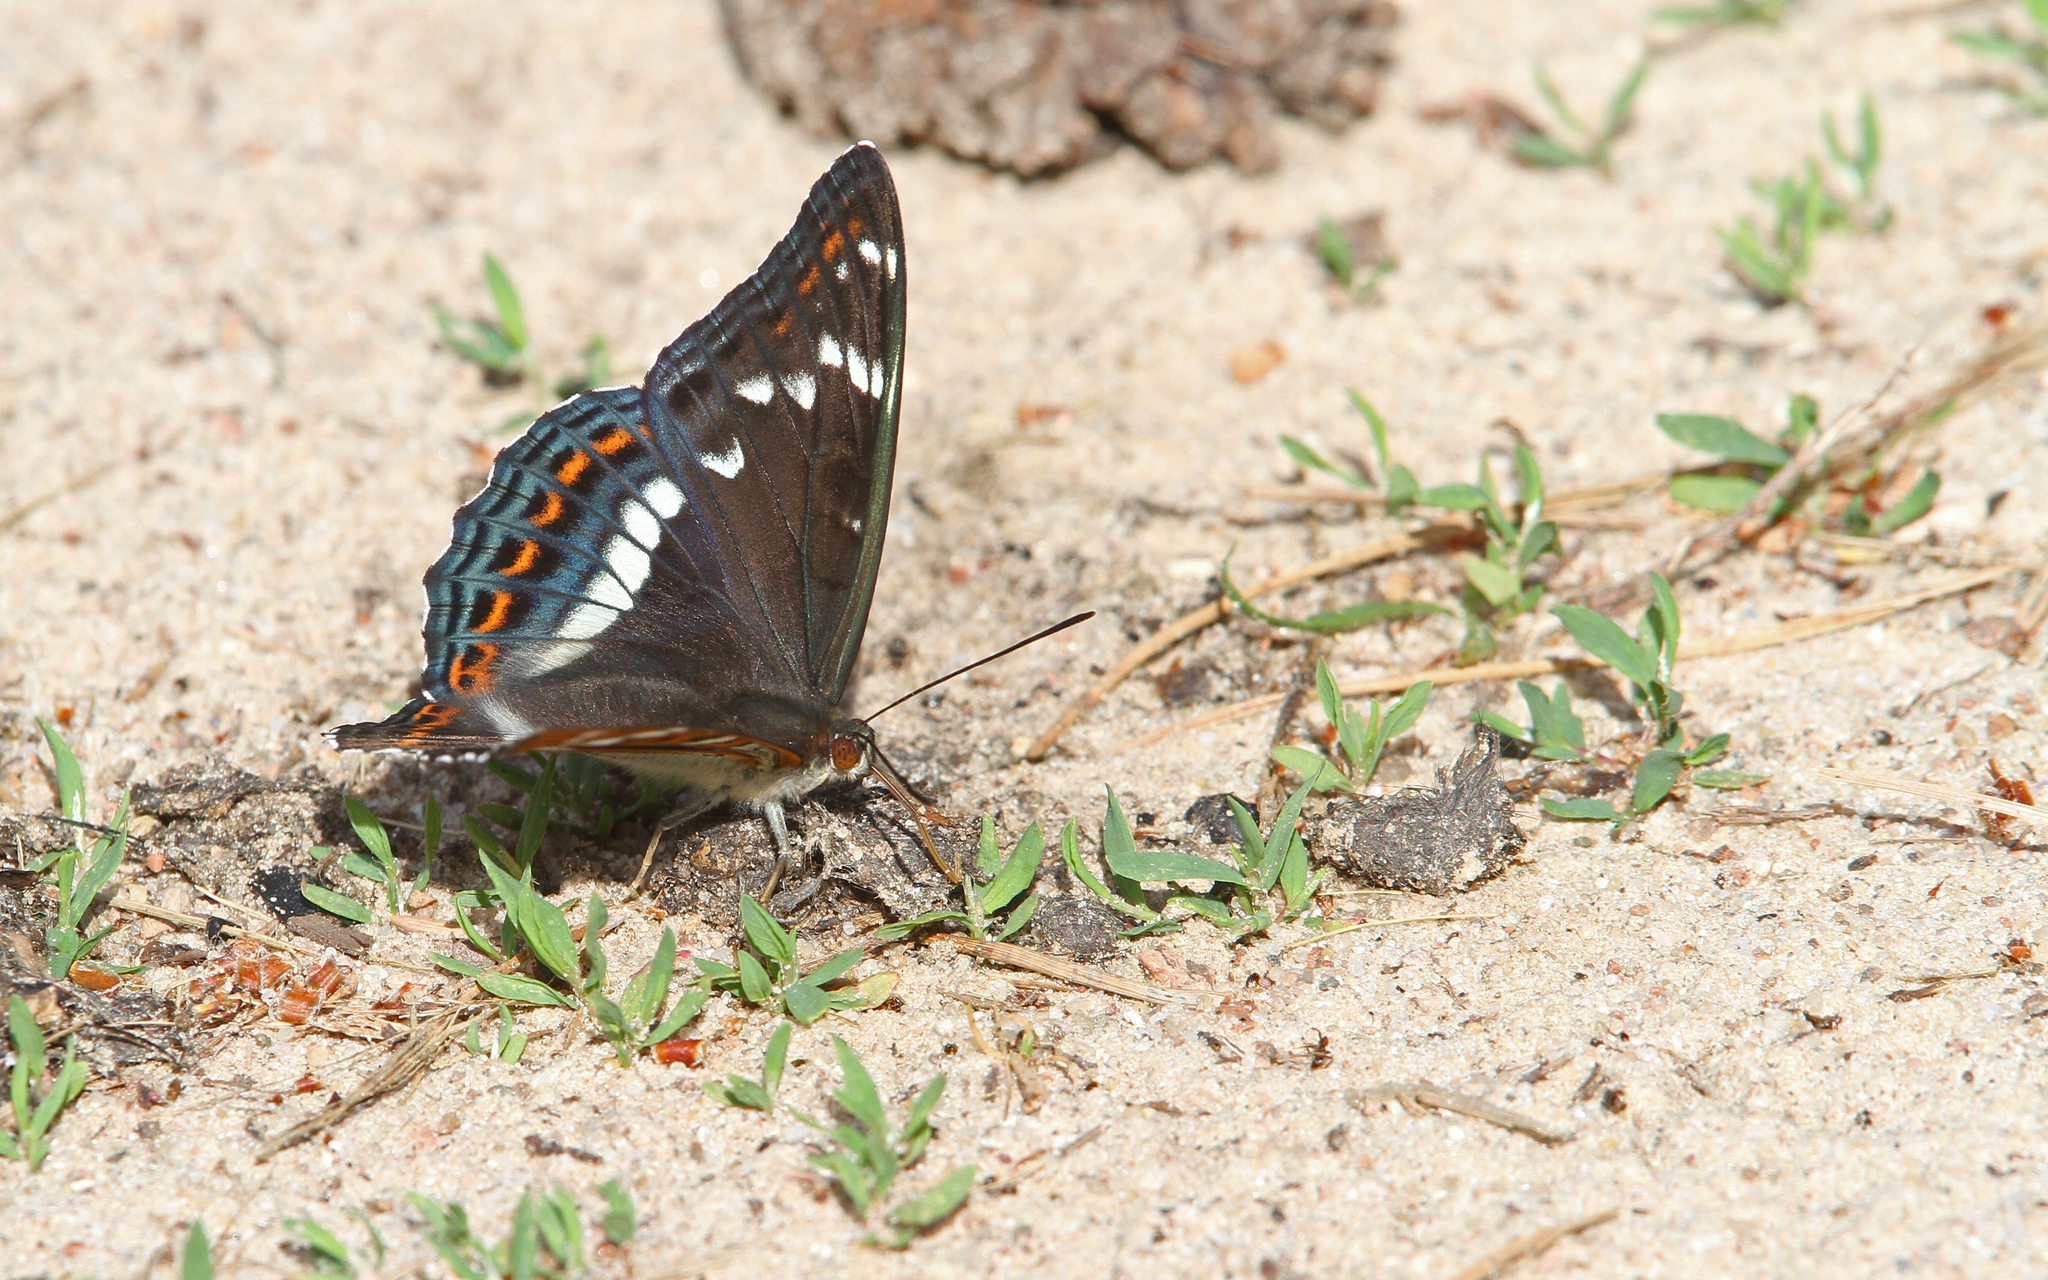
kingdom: Animalia
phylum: Arthropoda
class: Insecta
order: Lepidoptera
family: Nymphalidae
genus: Limenitis
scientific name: Limenitis populi
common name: Poplar admiral
